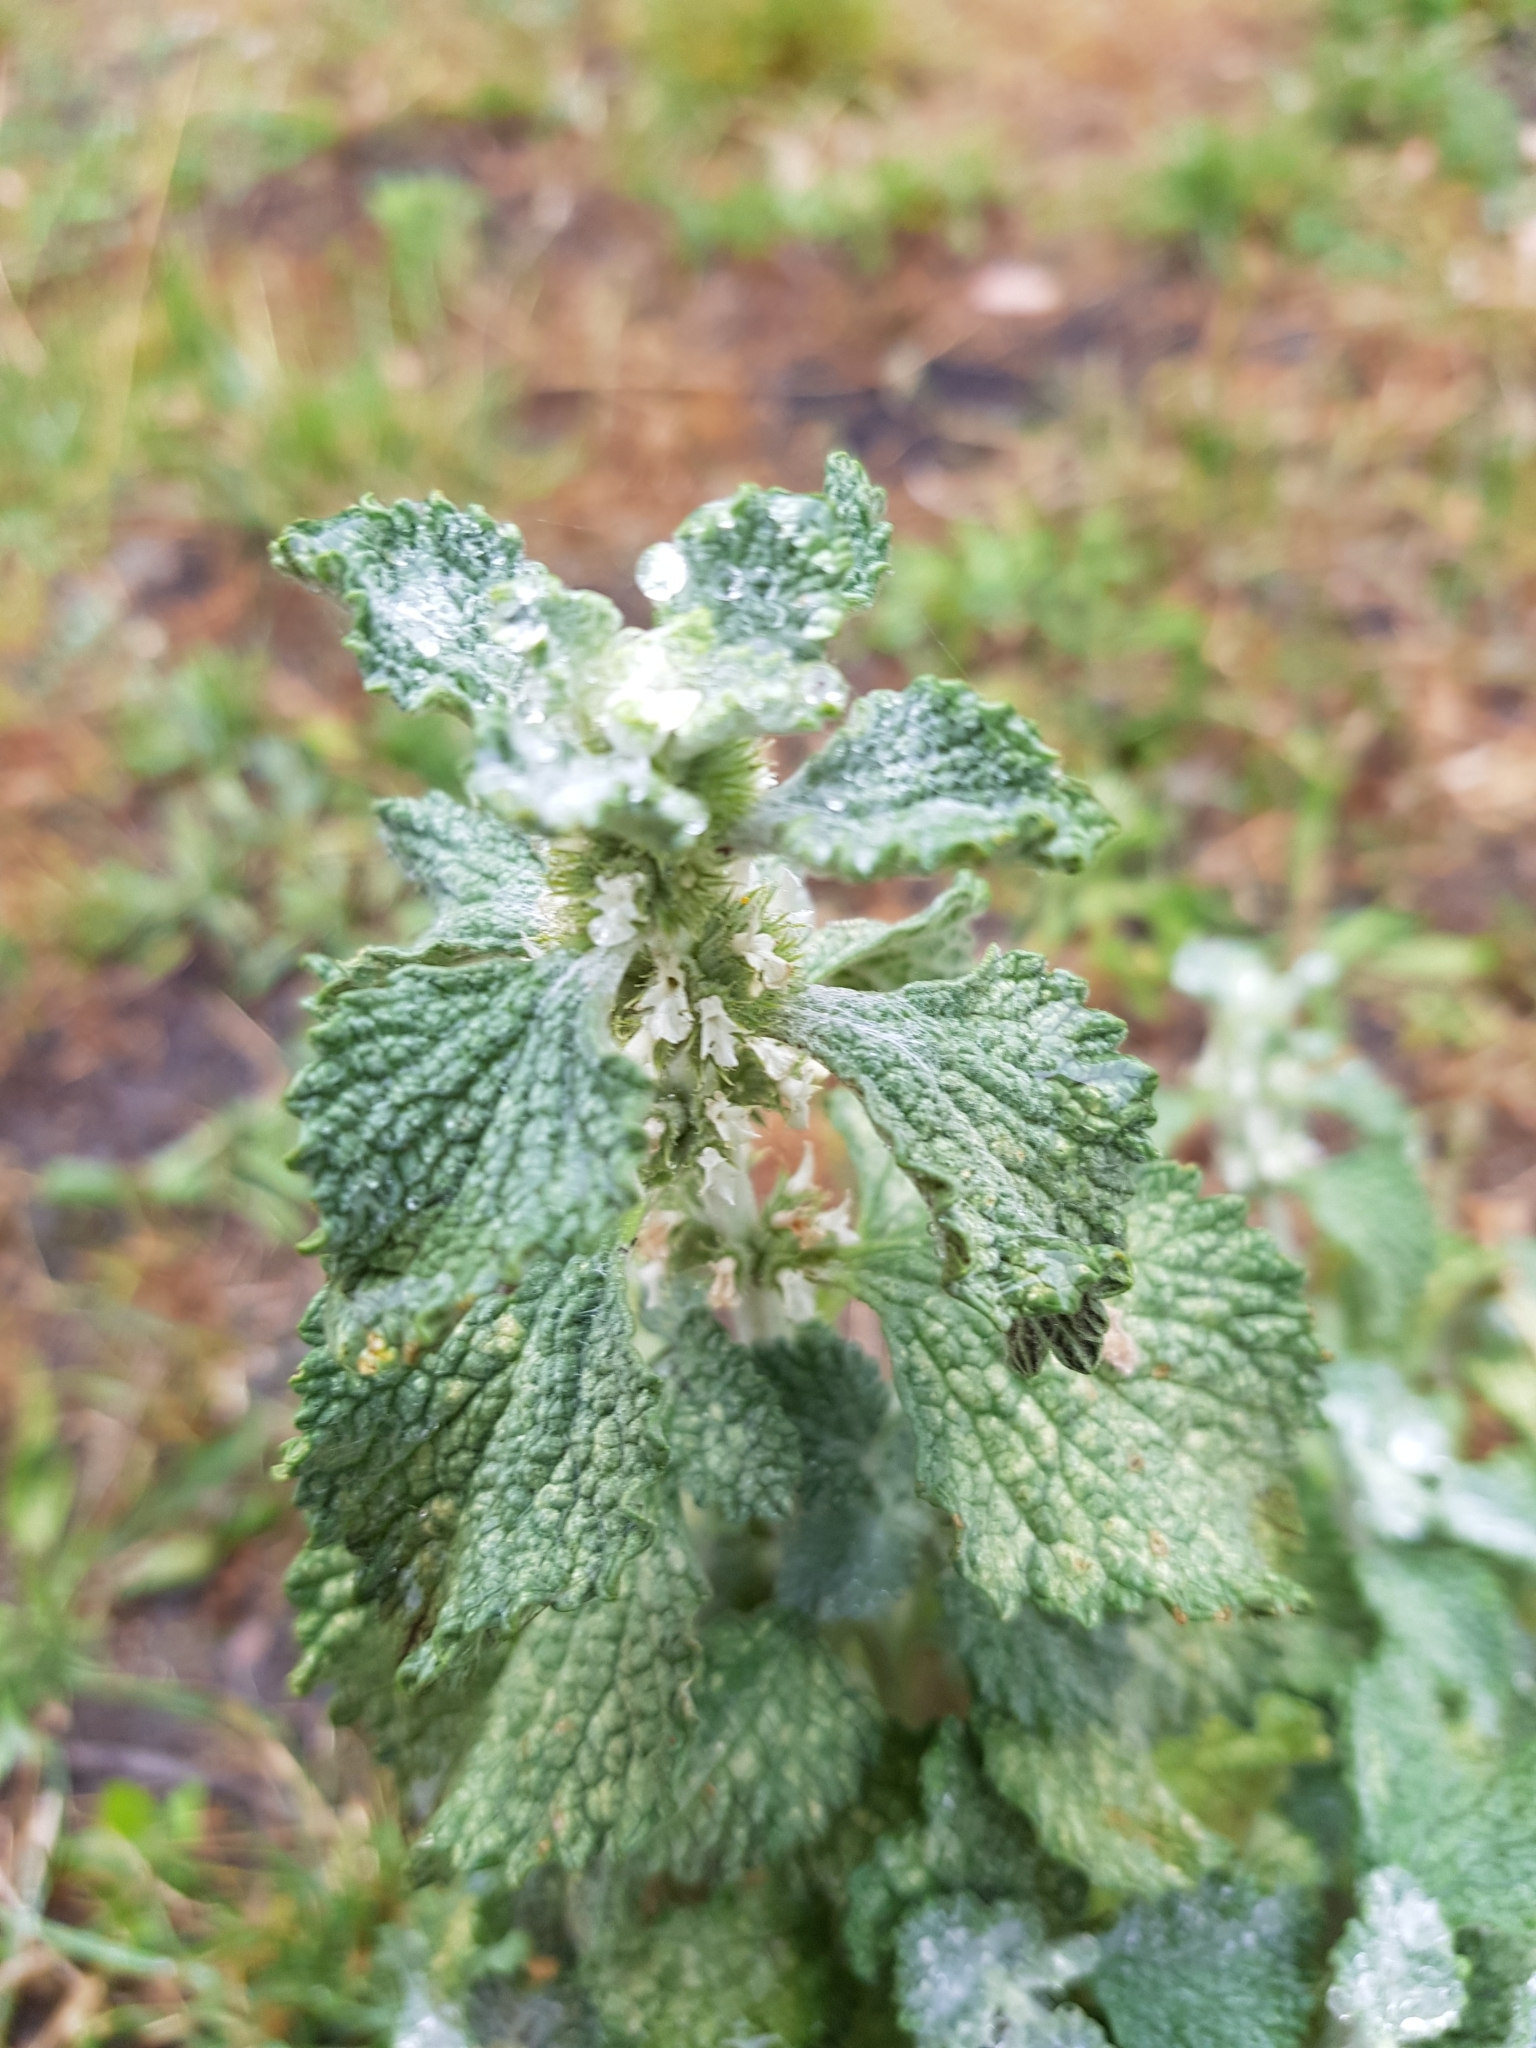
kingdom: Plantae
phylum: Tracheophyta
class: Magnoliopsida
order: Lamiales
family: Lamiaceae
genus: Marrubium
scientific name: Marrubium vulgare
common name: Horehound
